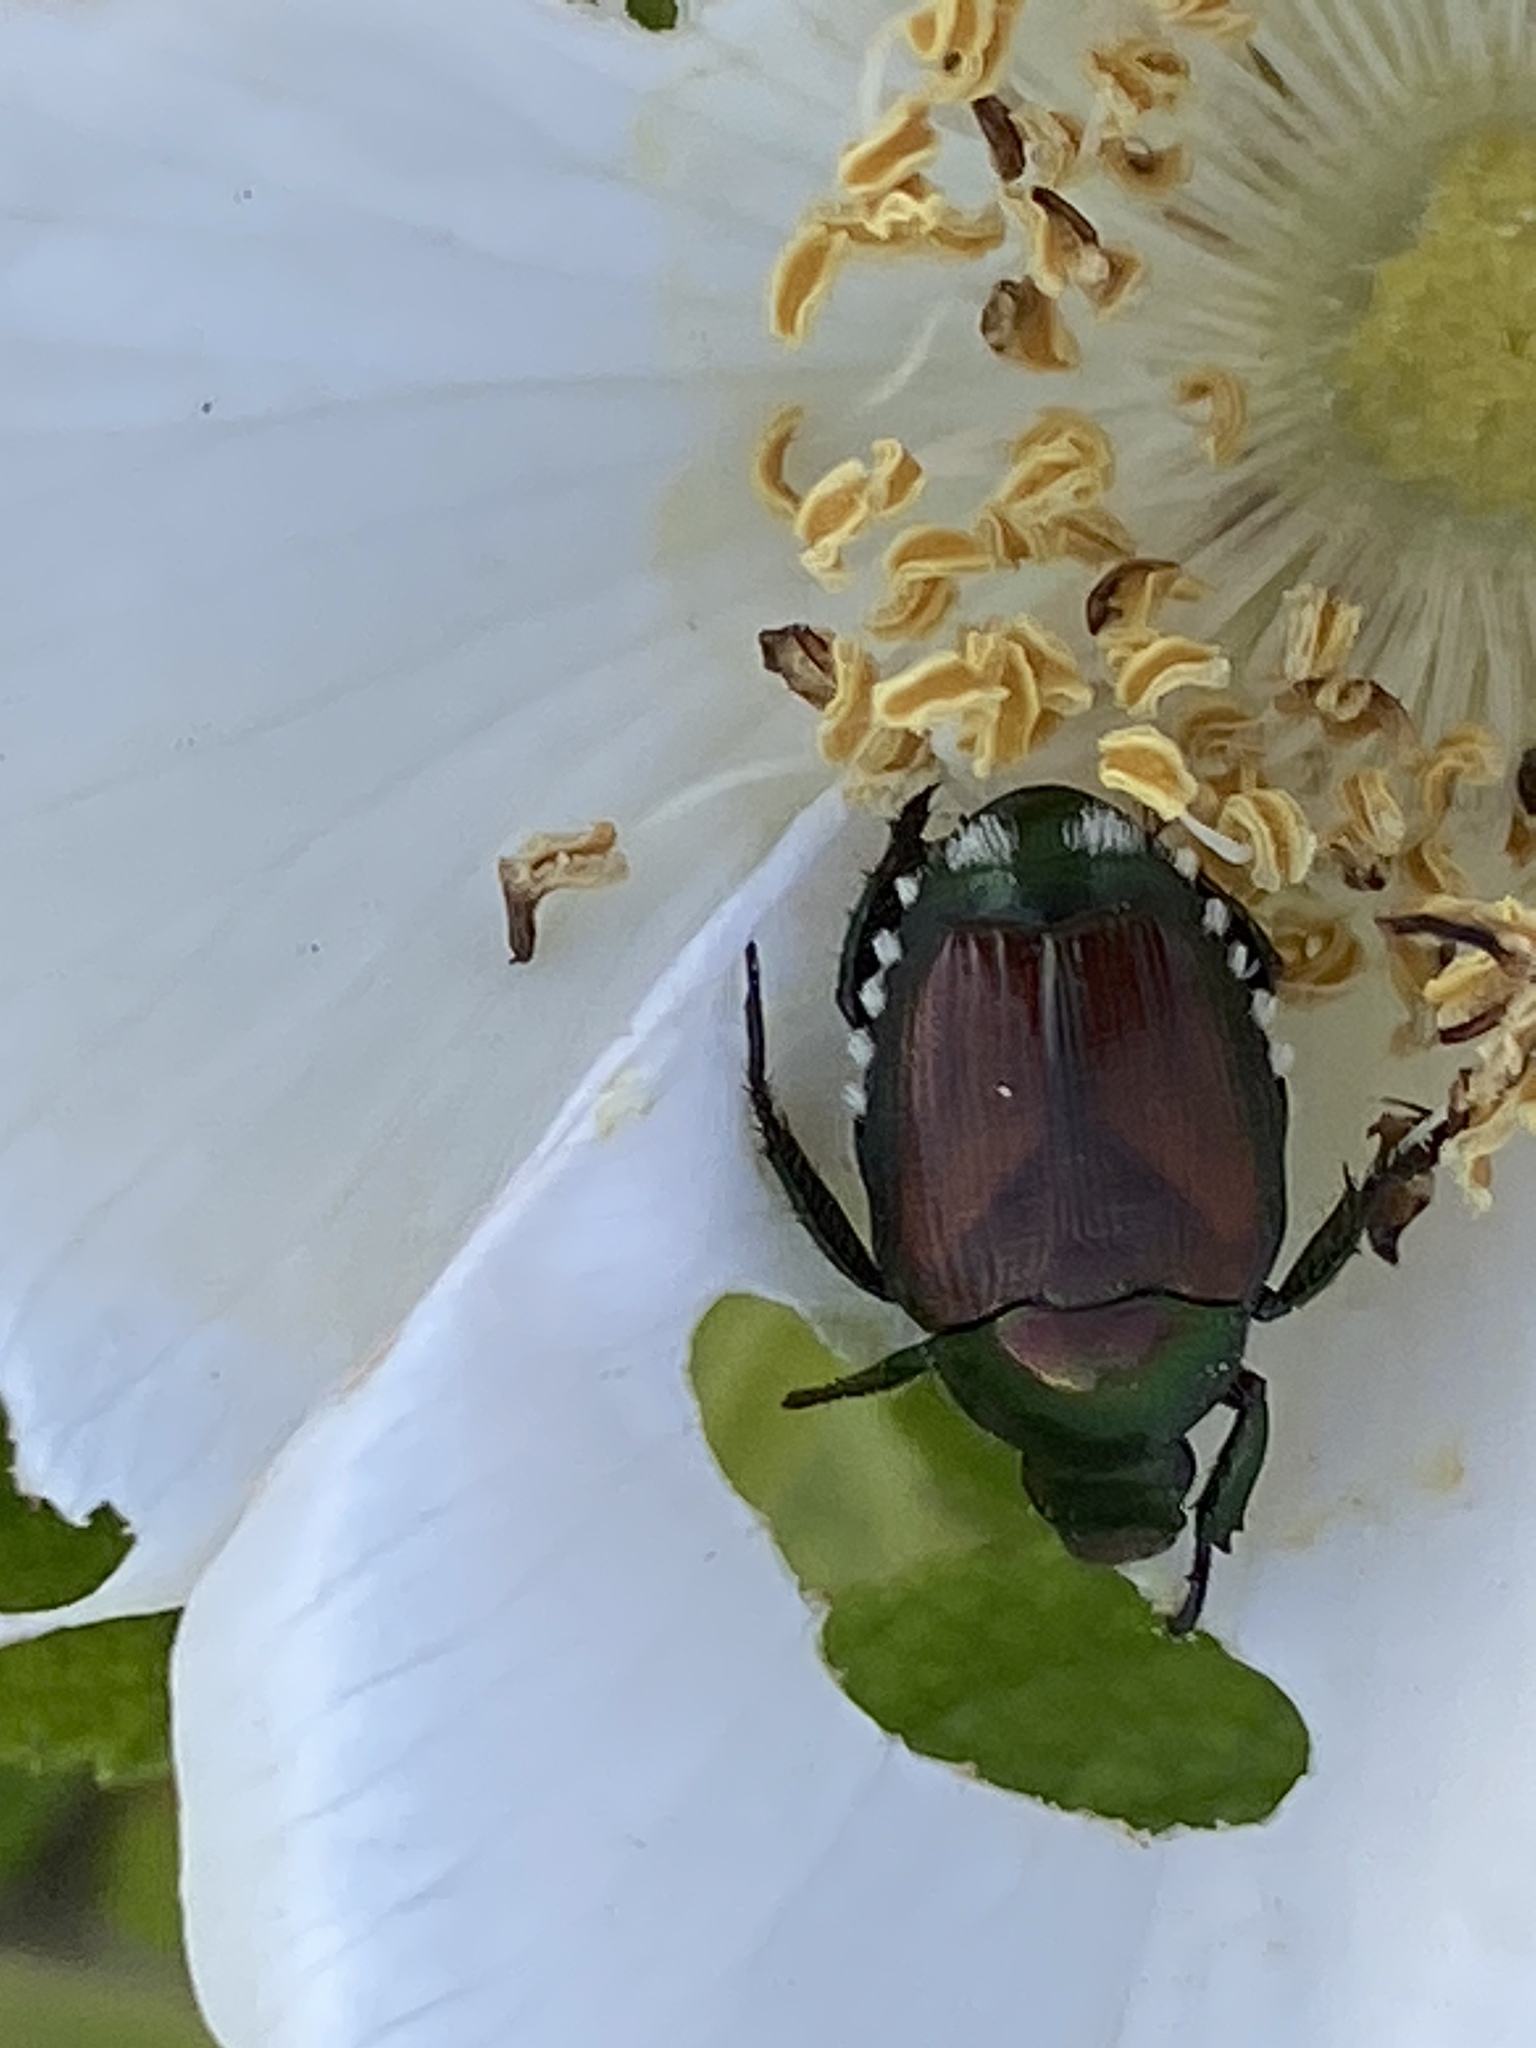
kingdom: Animalia
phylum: Arthropoda
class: Insecta
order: Coleoptera
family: Scarabaeidae
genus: Popillia
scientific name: Popillia japonica
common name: Japanese beetle
